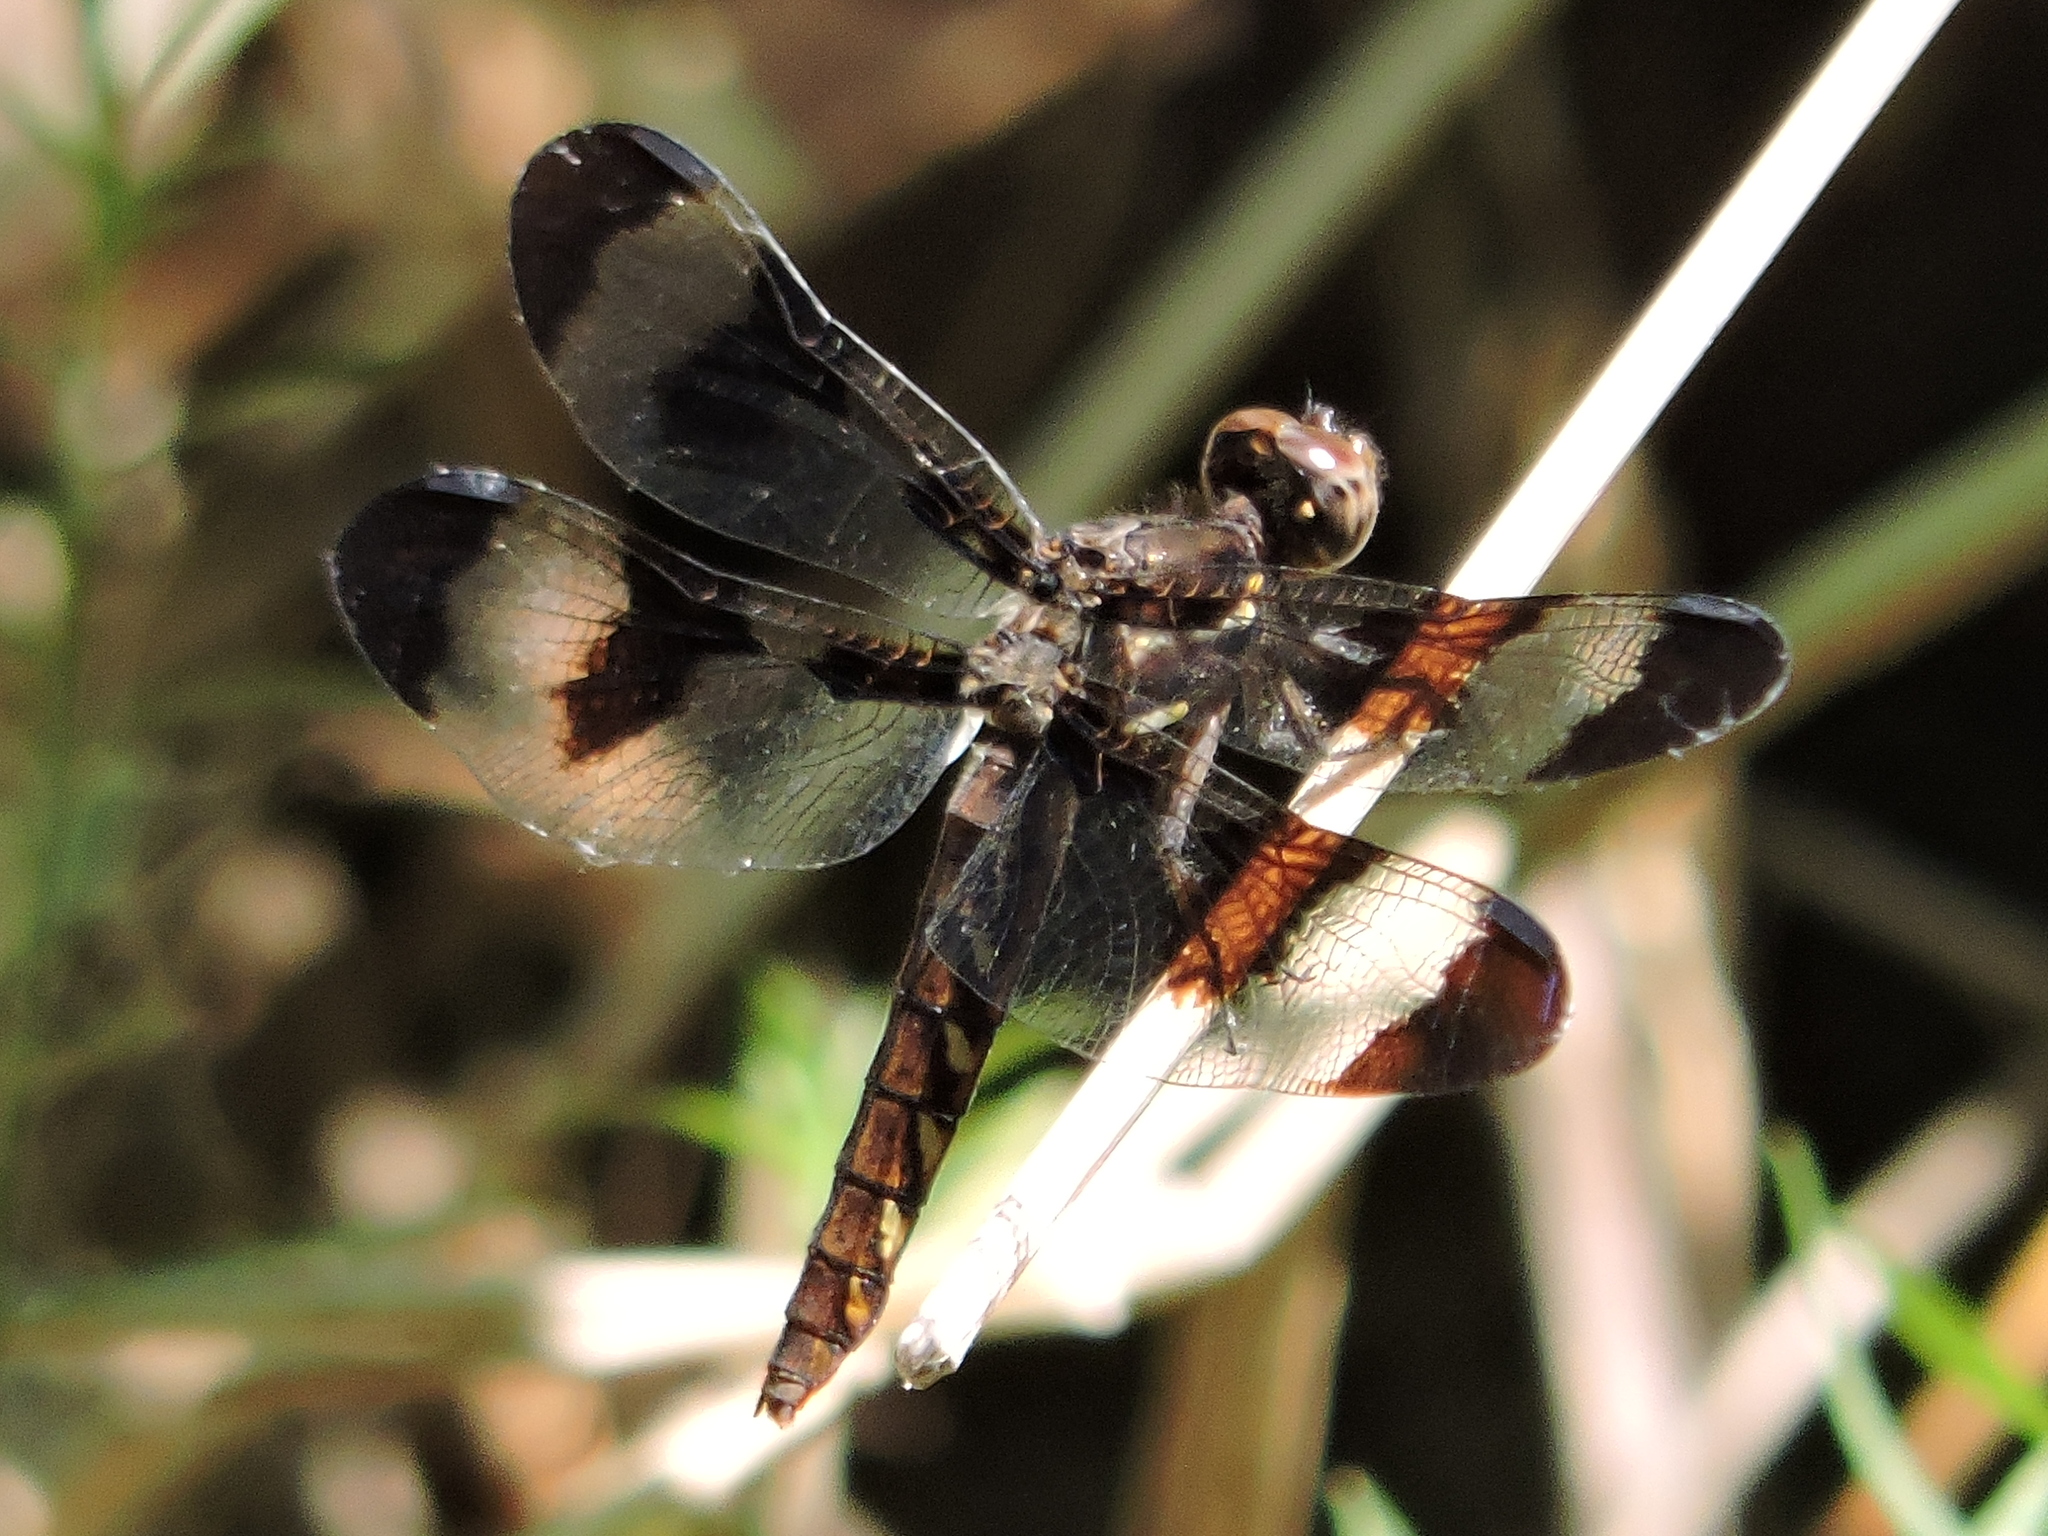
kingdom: Animalia
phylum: Arthropoda
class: Insecta
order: Odonata
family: Libellulidae
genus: Plathemis
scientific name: Plathemis lydia
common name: Common whitetail
